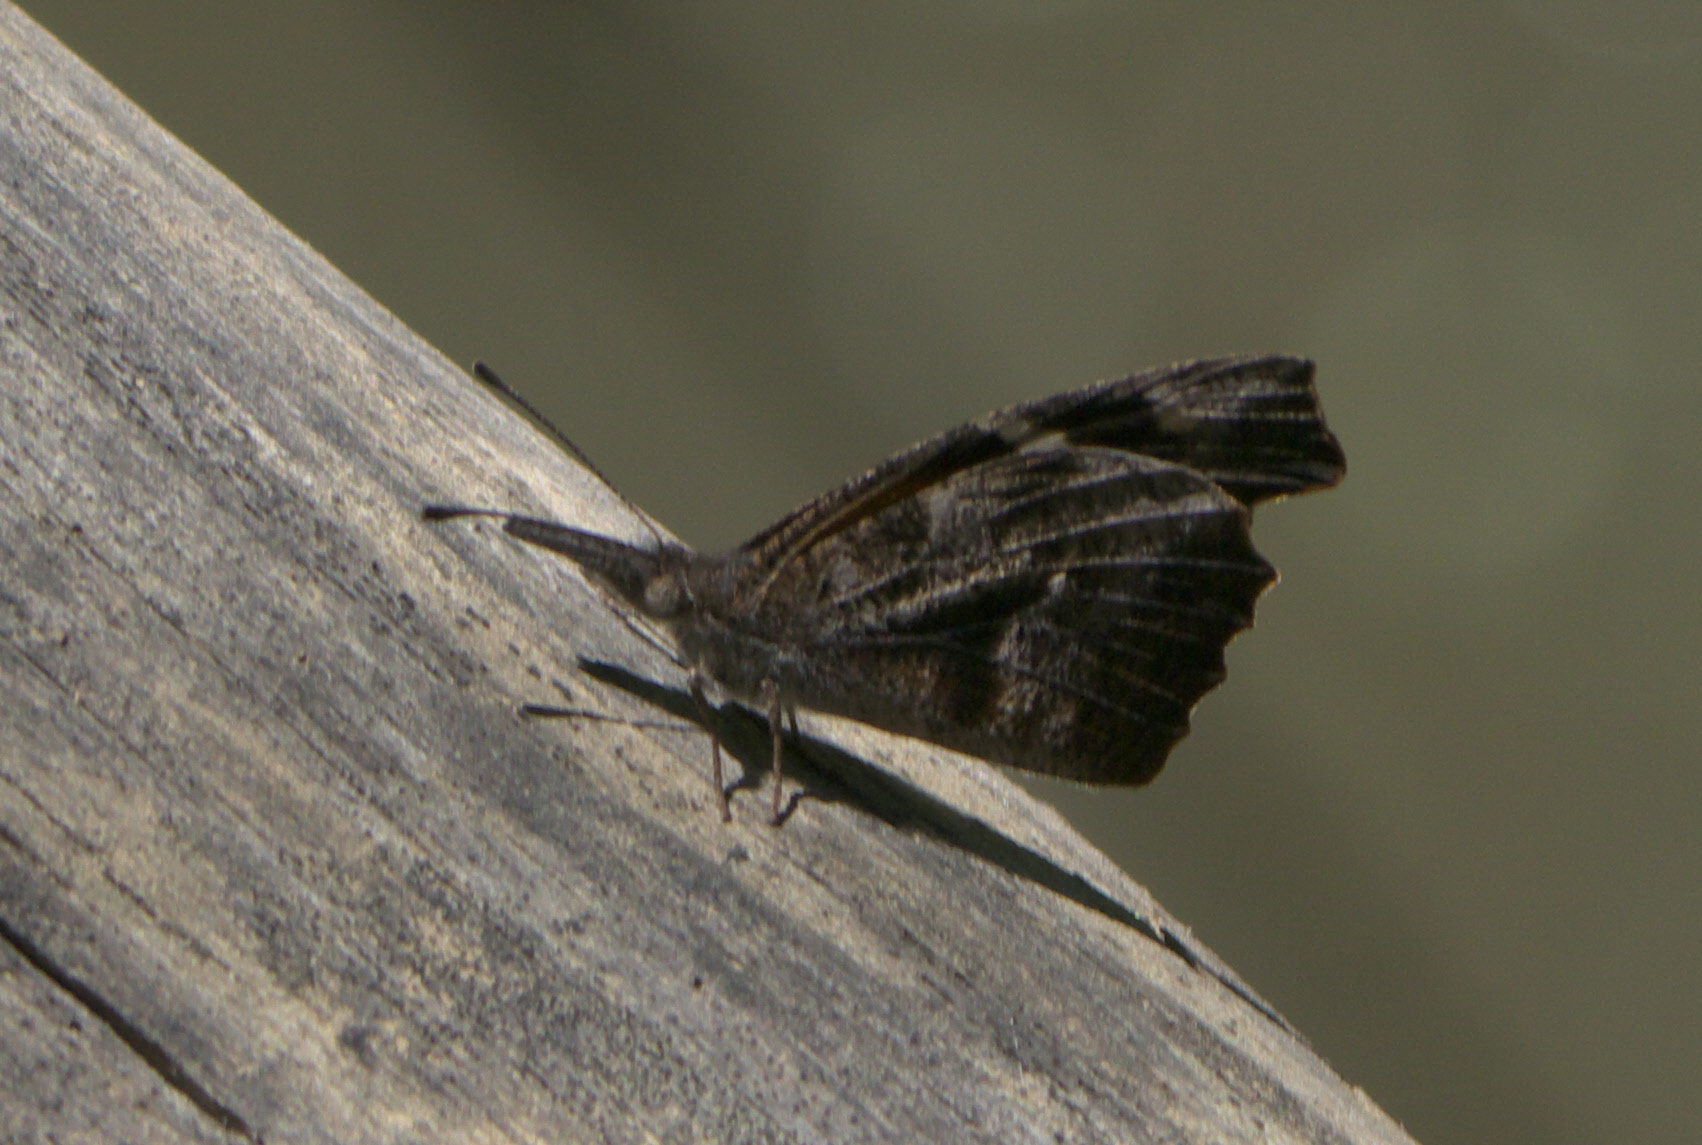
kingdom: Animalia
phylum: Arthropoda
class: Insecta
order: Lepidoptera
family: Nymphalidae
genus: Libytheana
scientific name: Libytheana carinenta
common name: American snout
